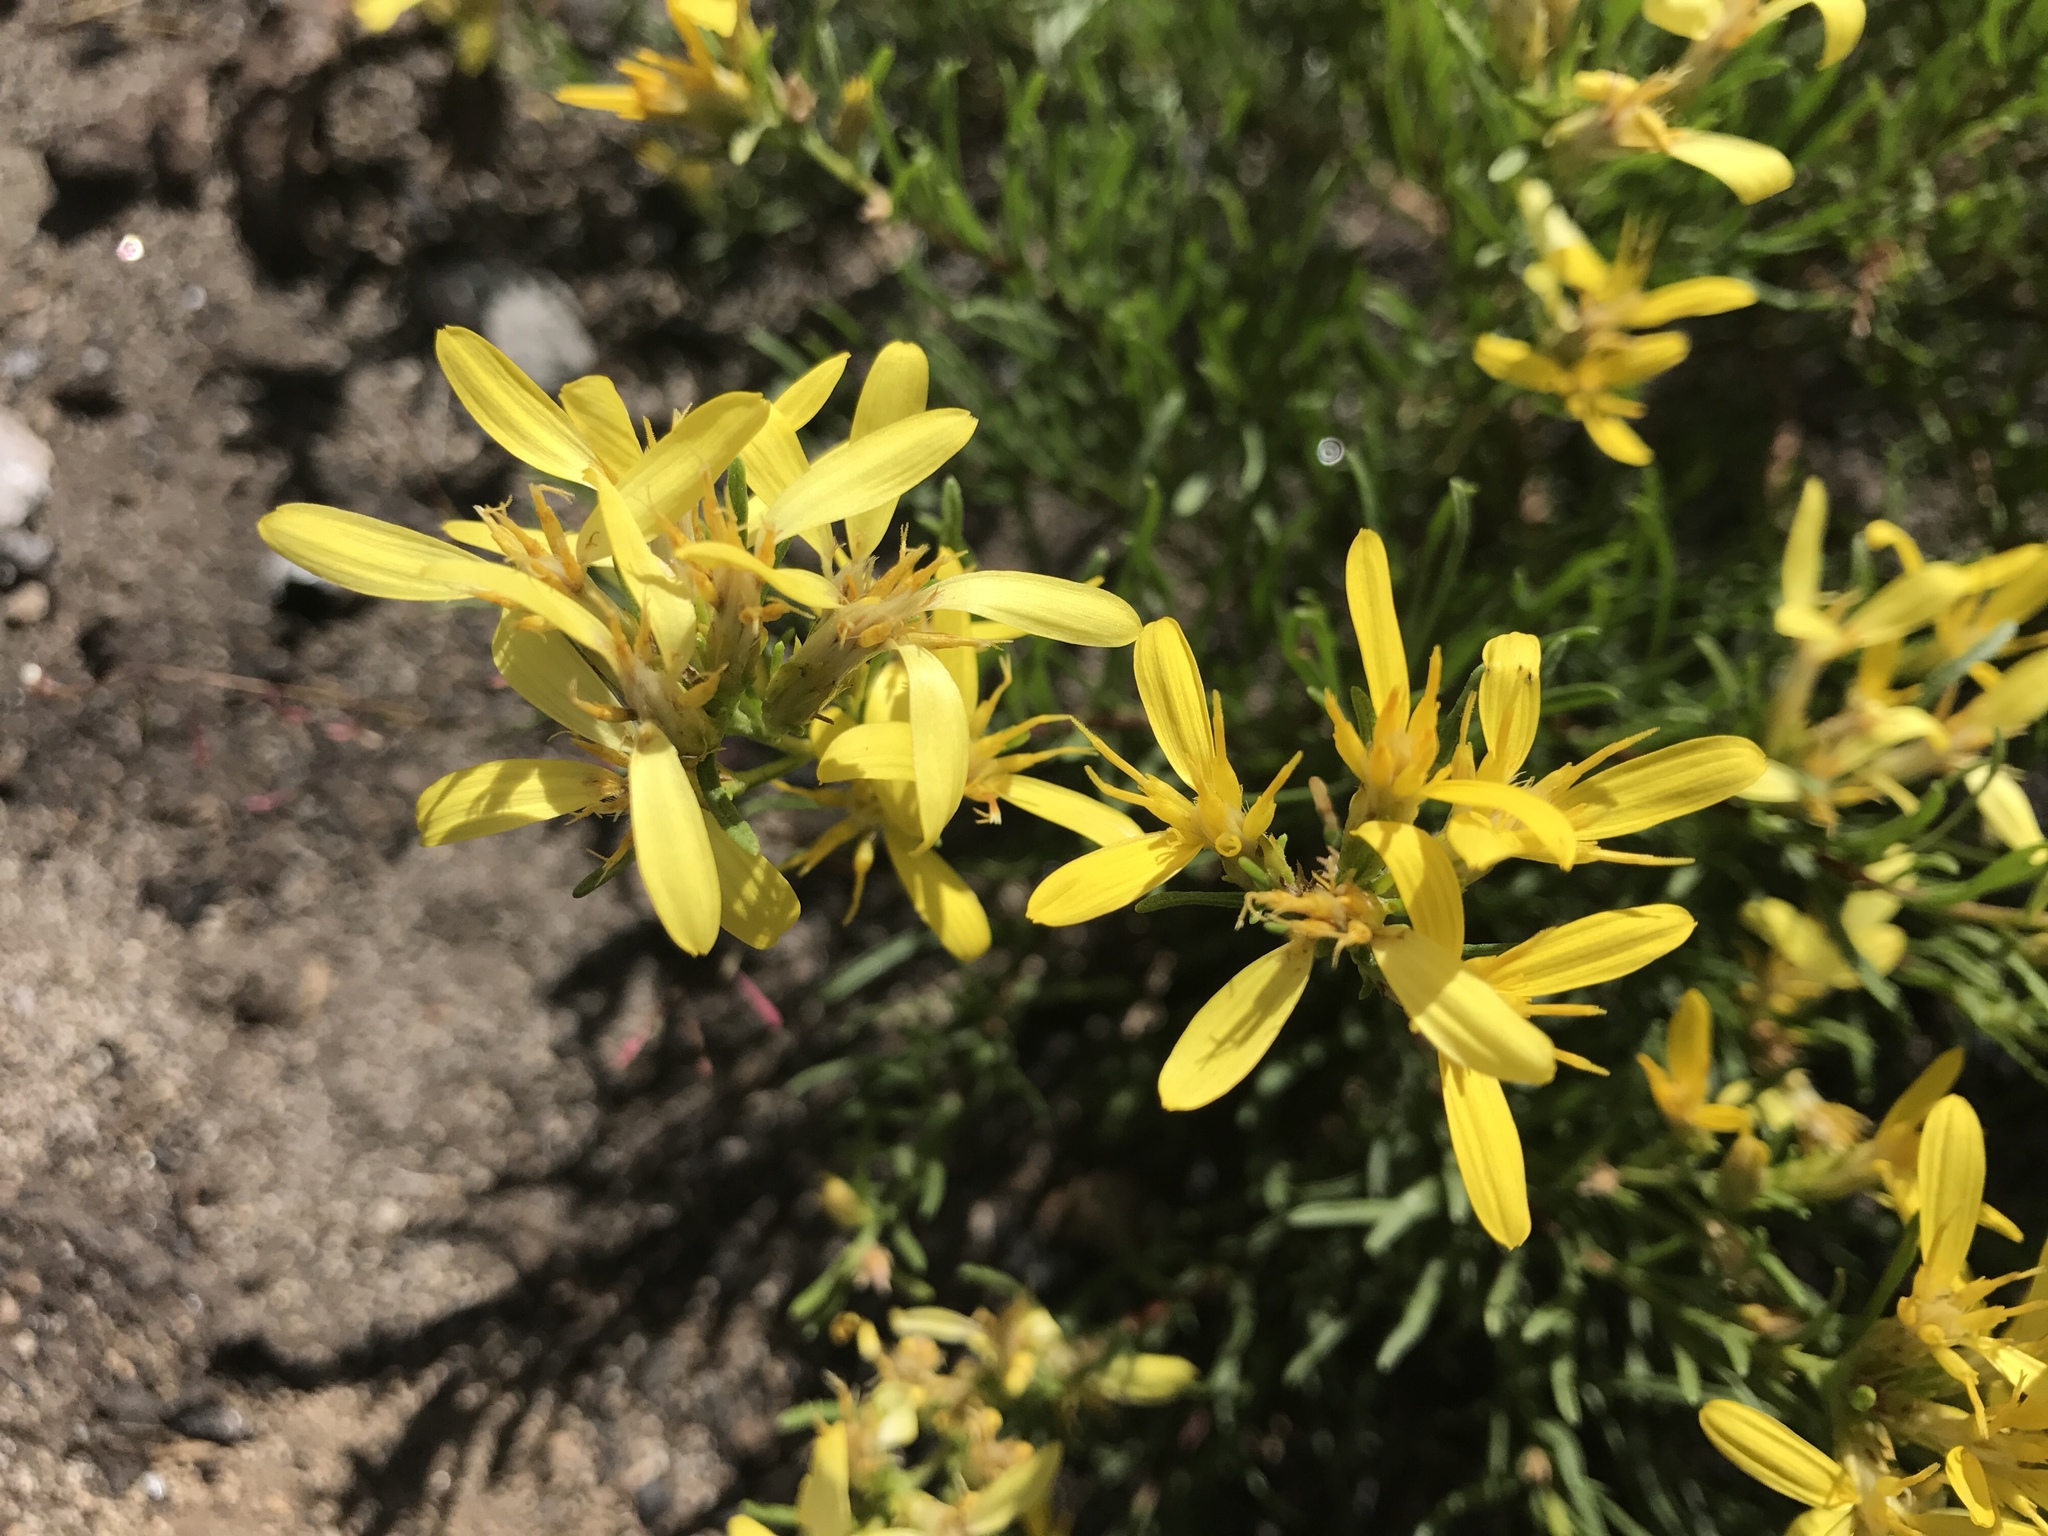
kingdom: Plantae
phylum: Tracheophyta
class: Magnoliopsida
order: Asterales
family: Asteraceae
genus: Ericameria
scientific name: Ericameria greenei
